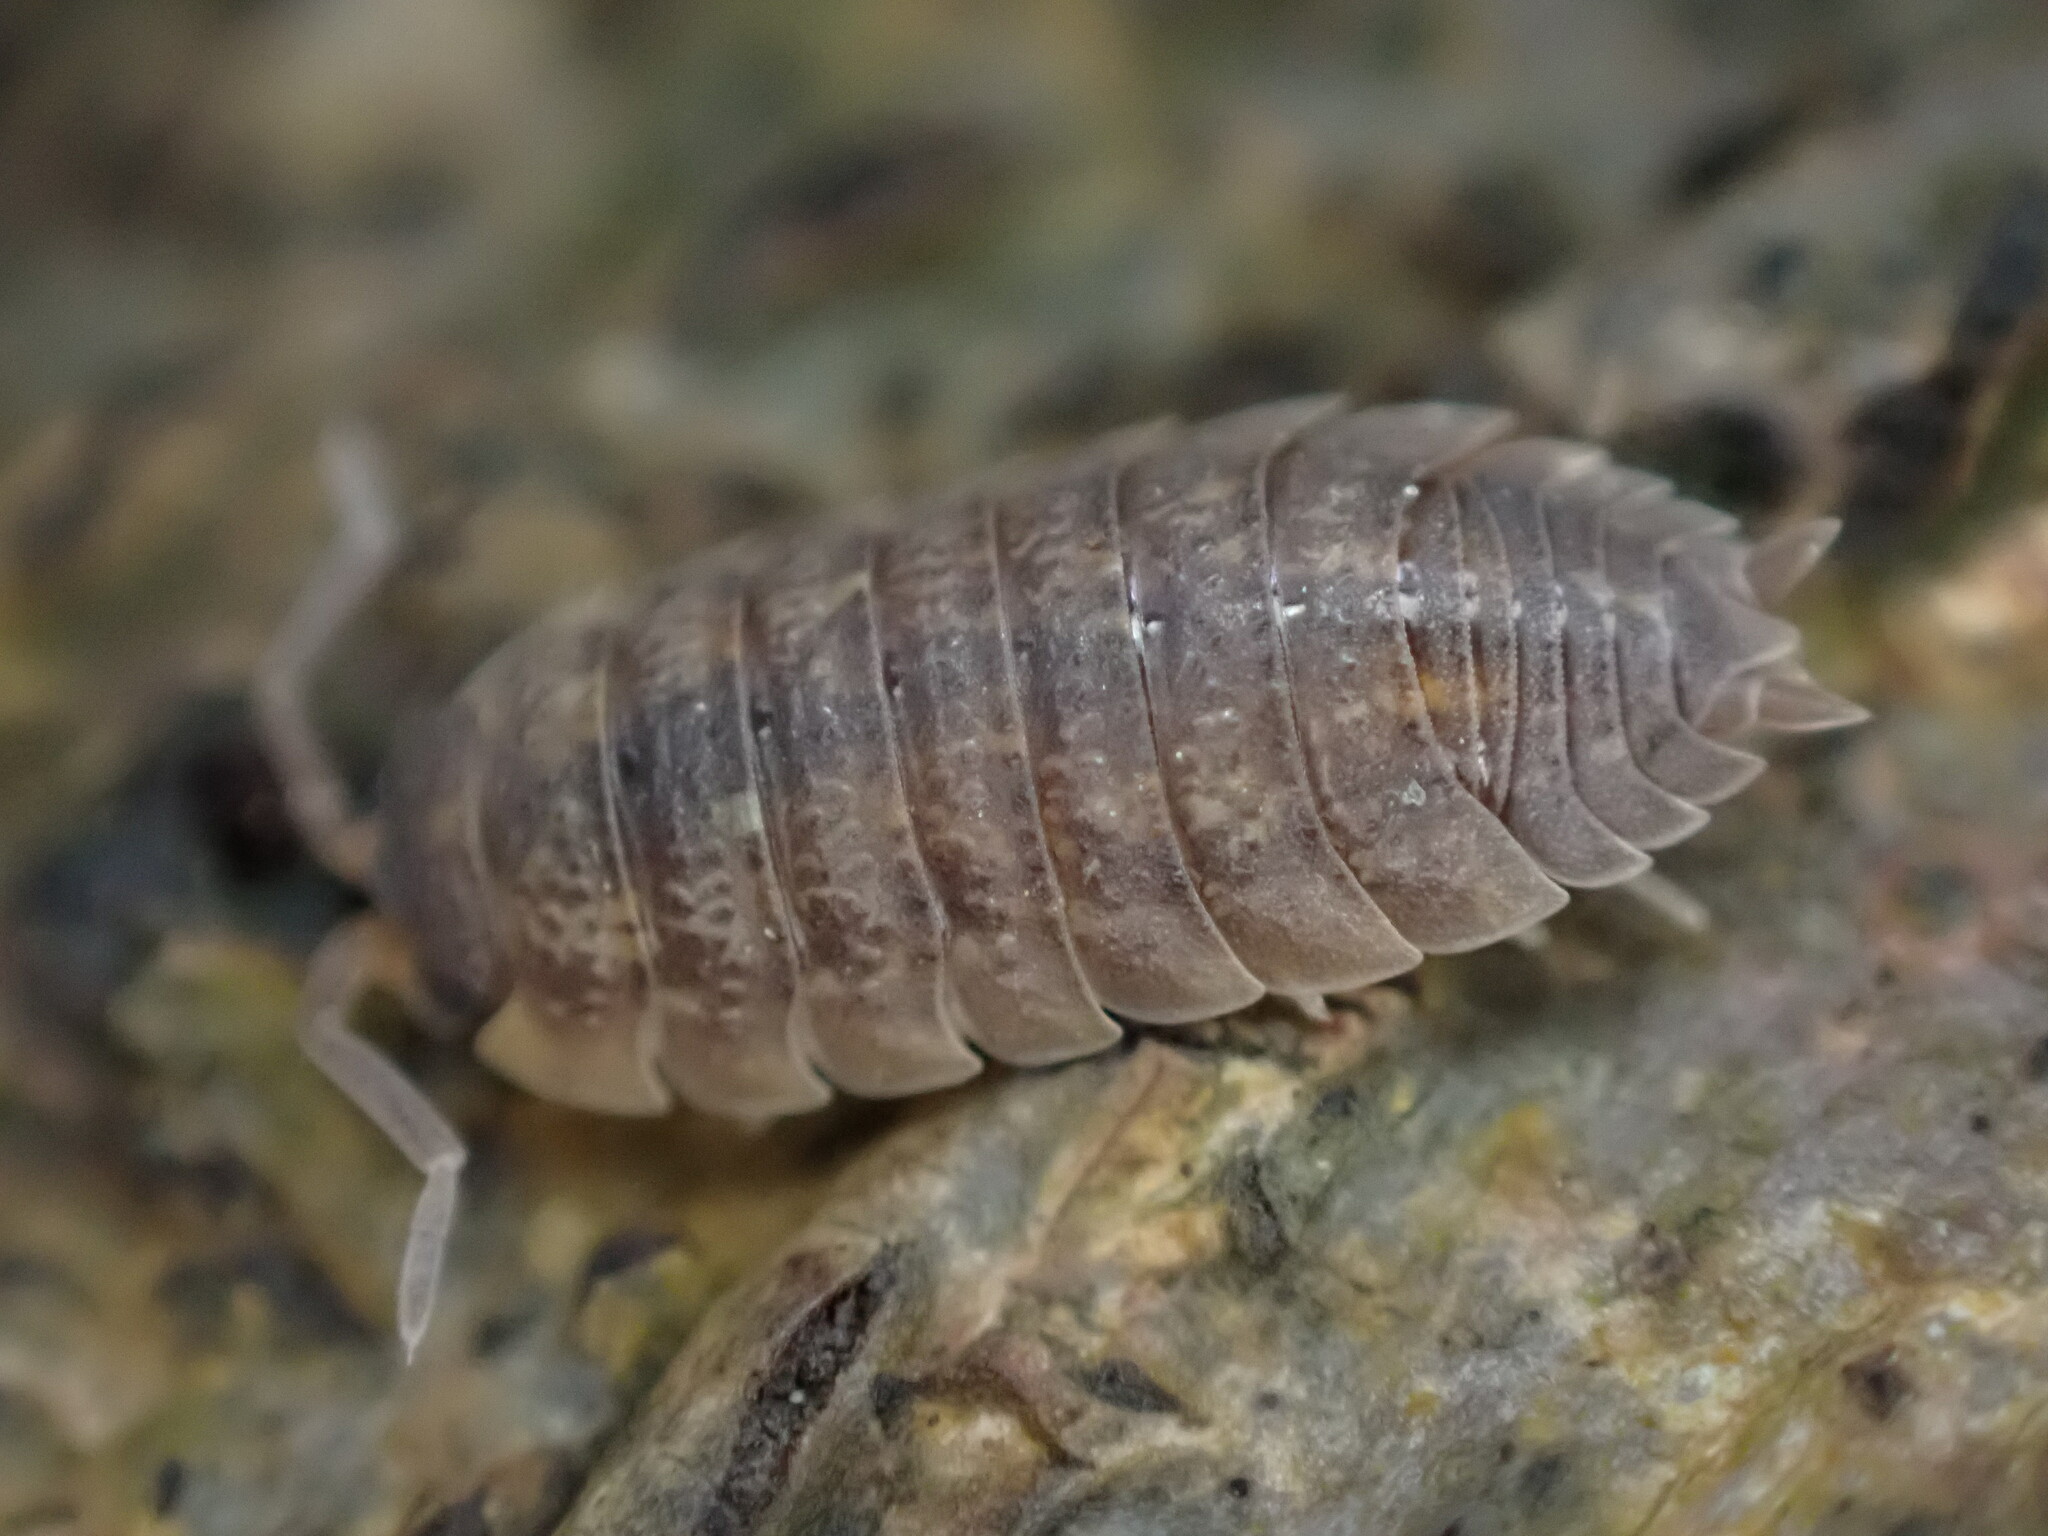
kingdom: Animalia
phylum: Arthropoda
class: Malacostraca
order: Isopoda
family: Porcellionidae
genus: Porcellio
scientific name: Porcellio scaber
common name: Common rough woodlouse
